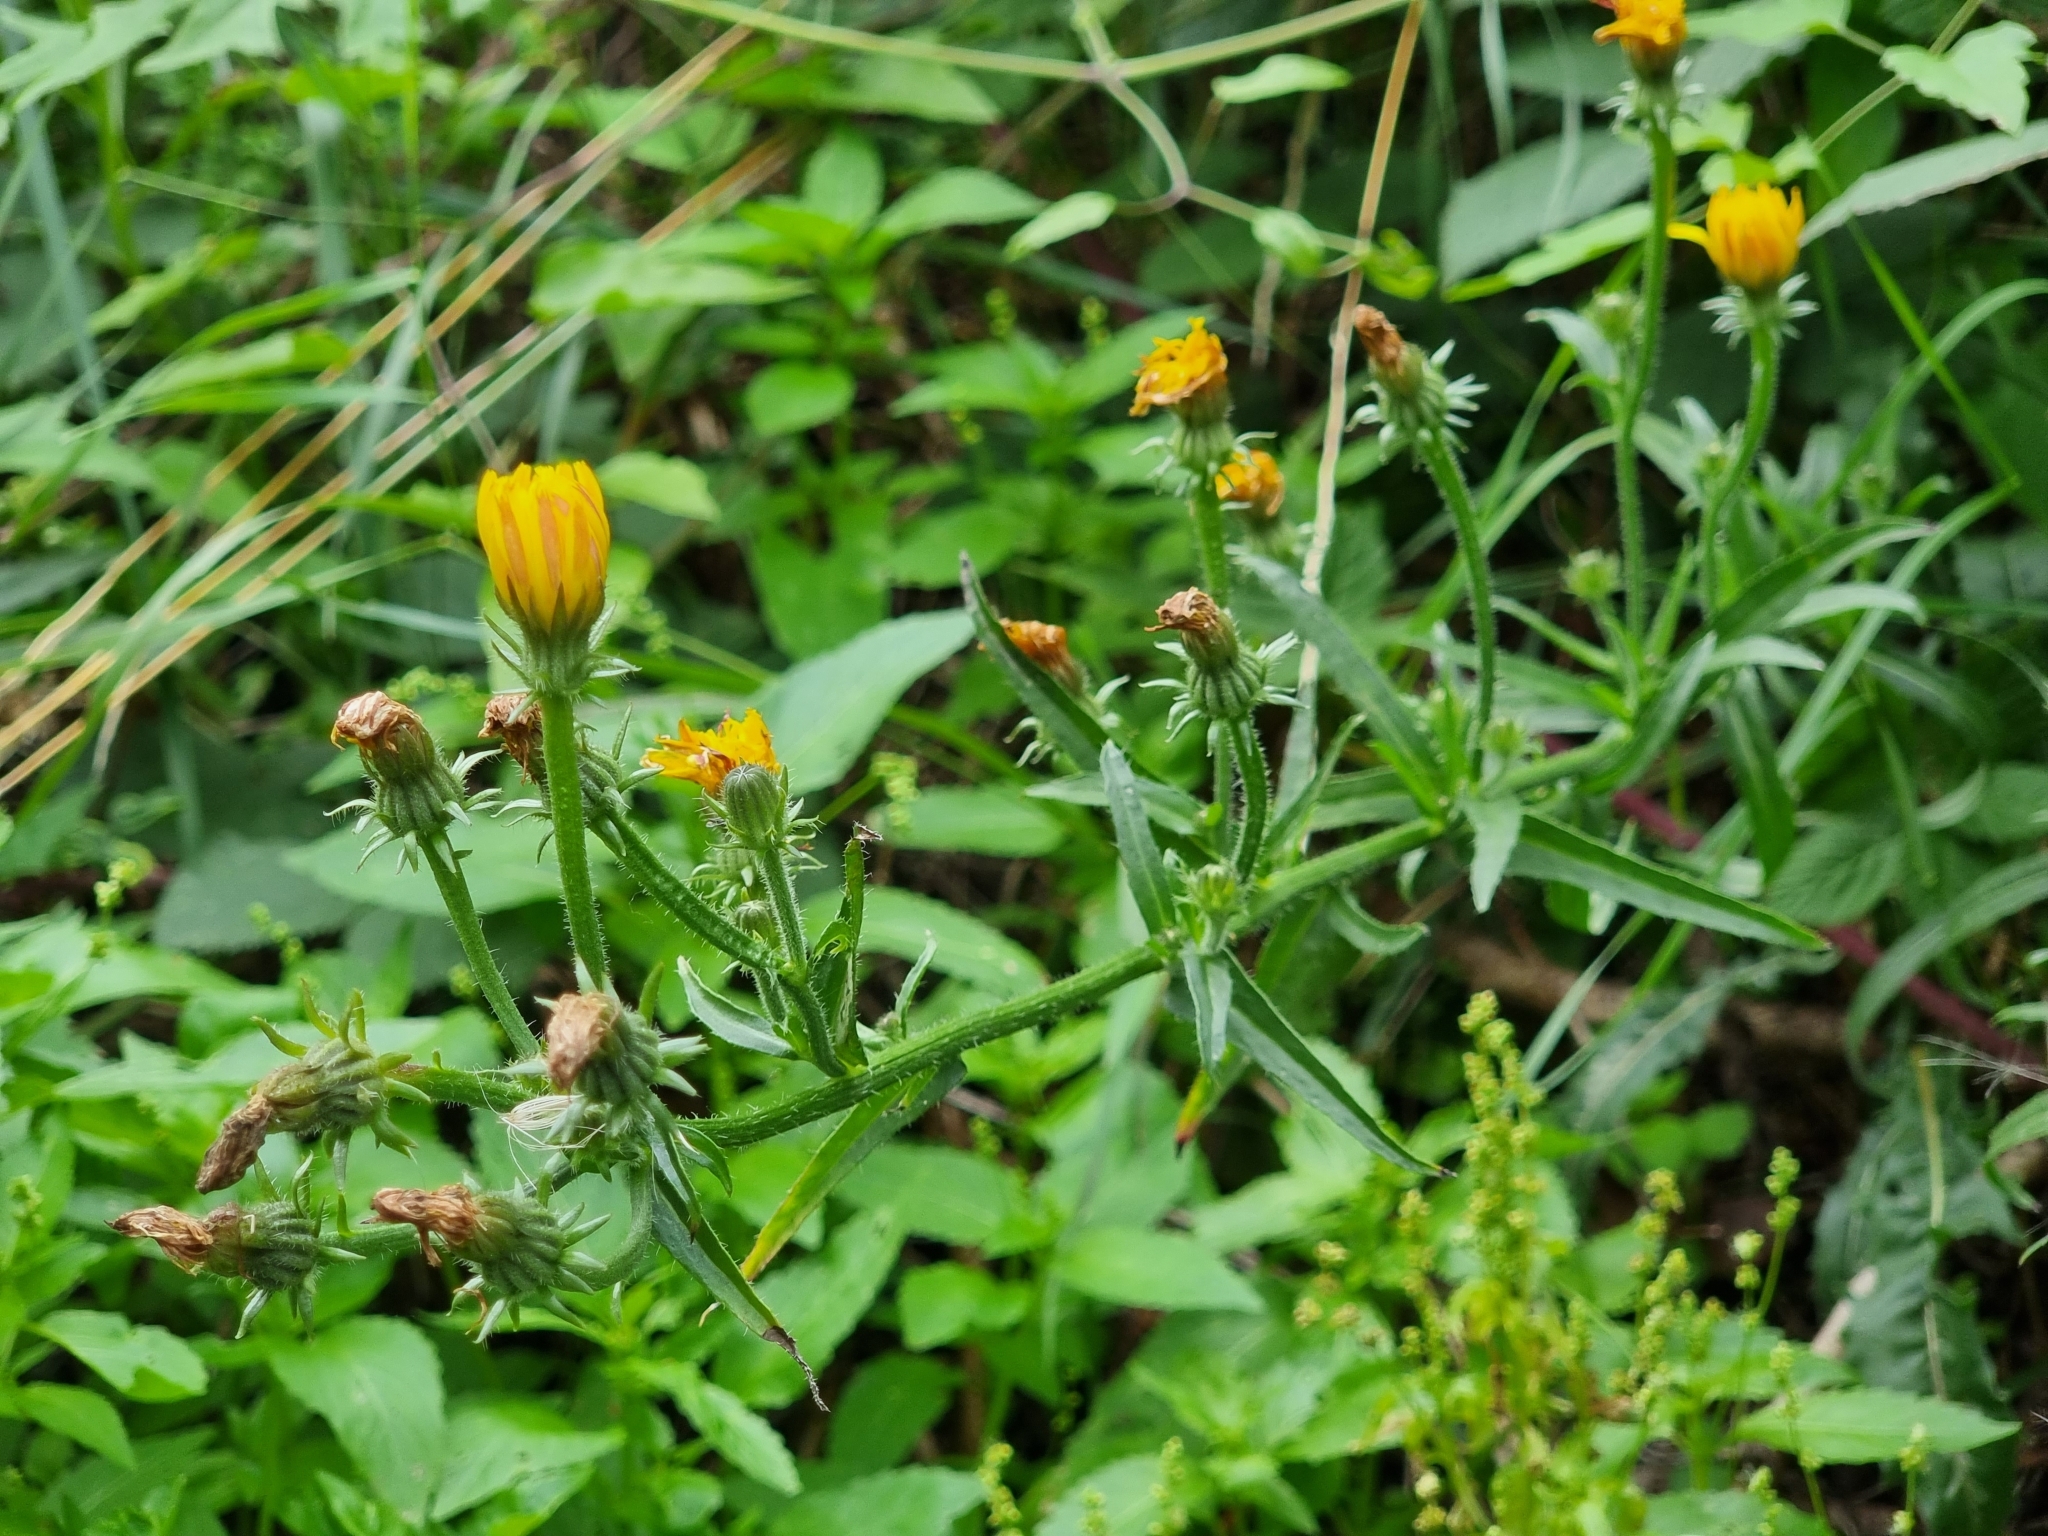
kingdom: Plantae
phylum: Tracheophyta
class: Magnoliopsida
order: Asterales
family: Asteraceae
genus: Picris
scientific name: Picris hieracioides
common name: Hawkweed oxtongue
